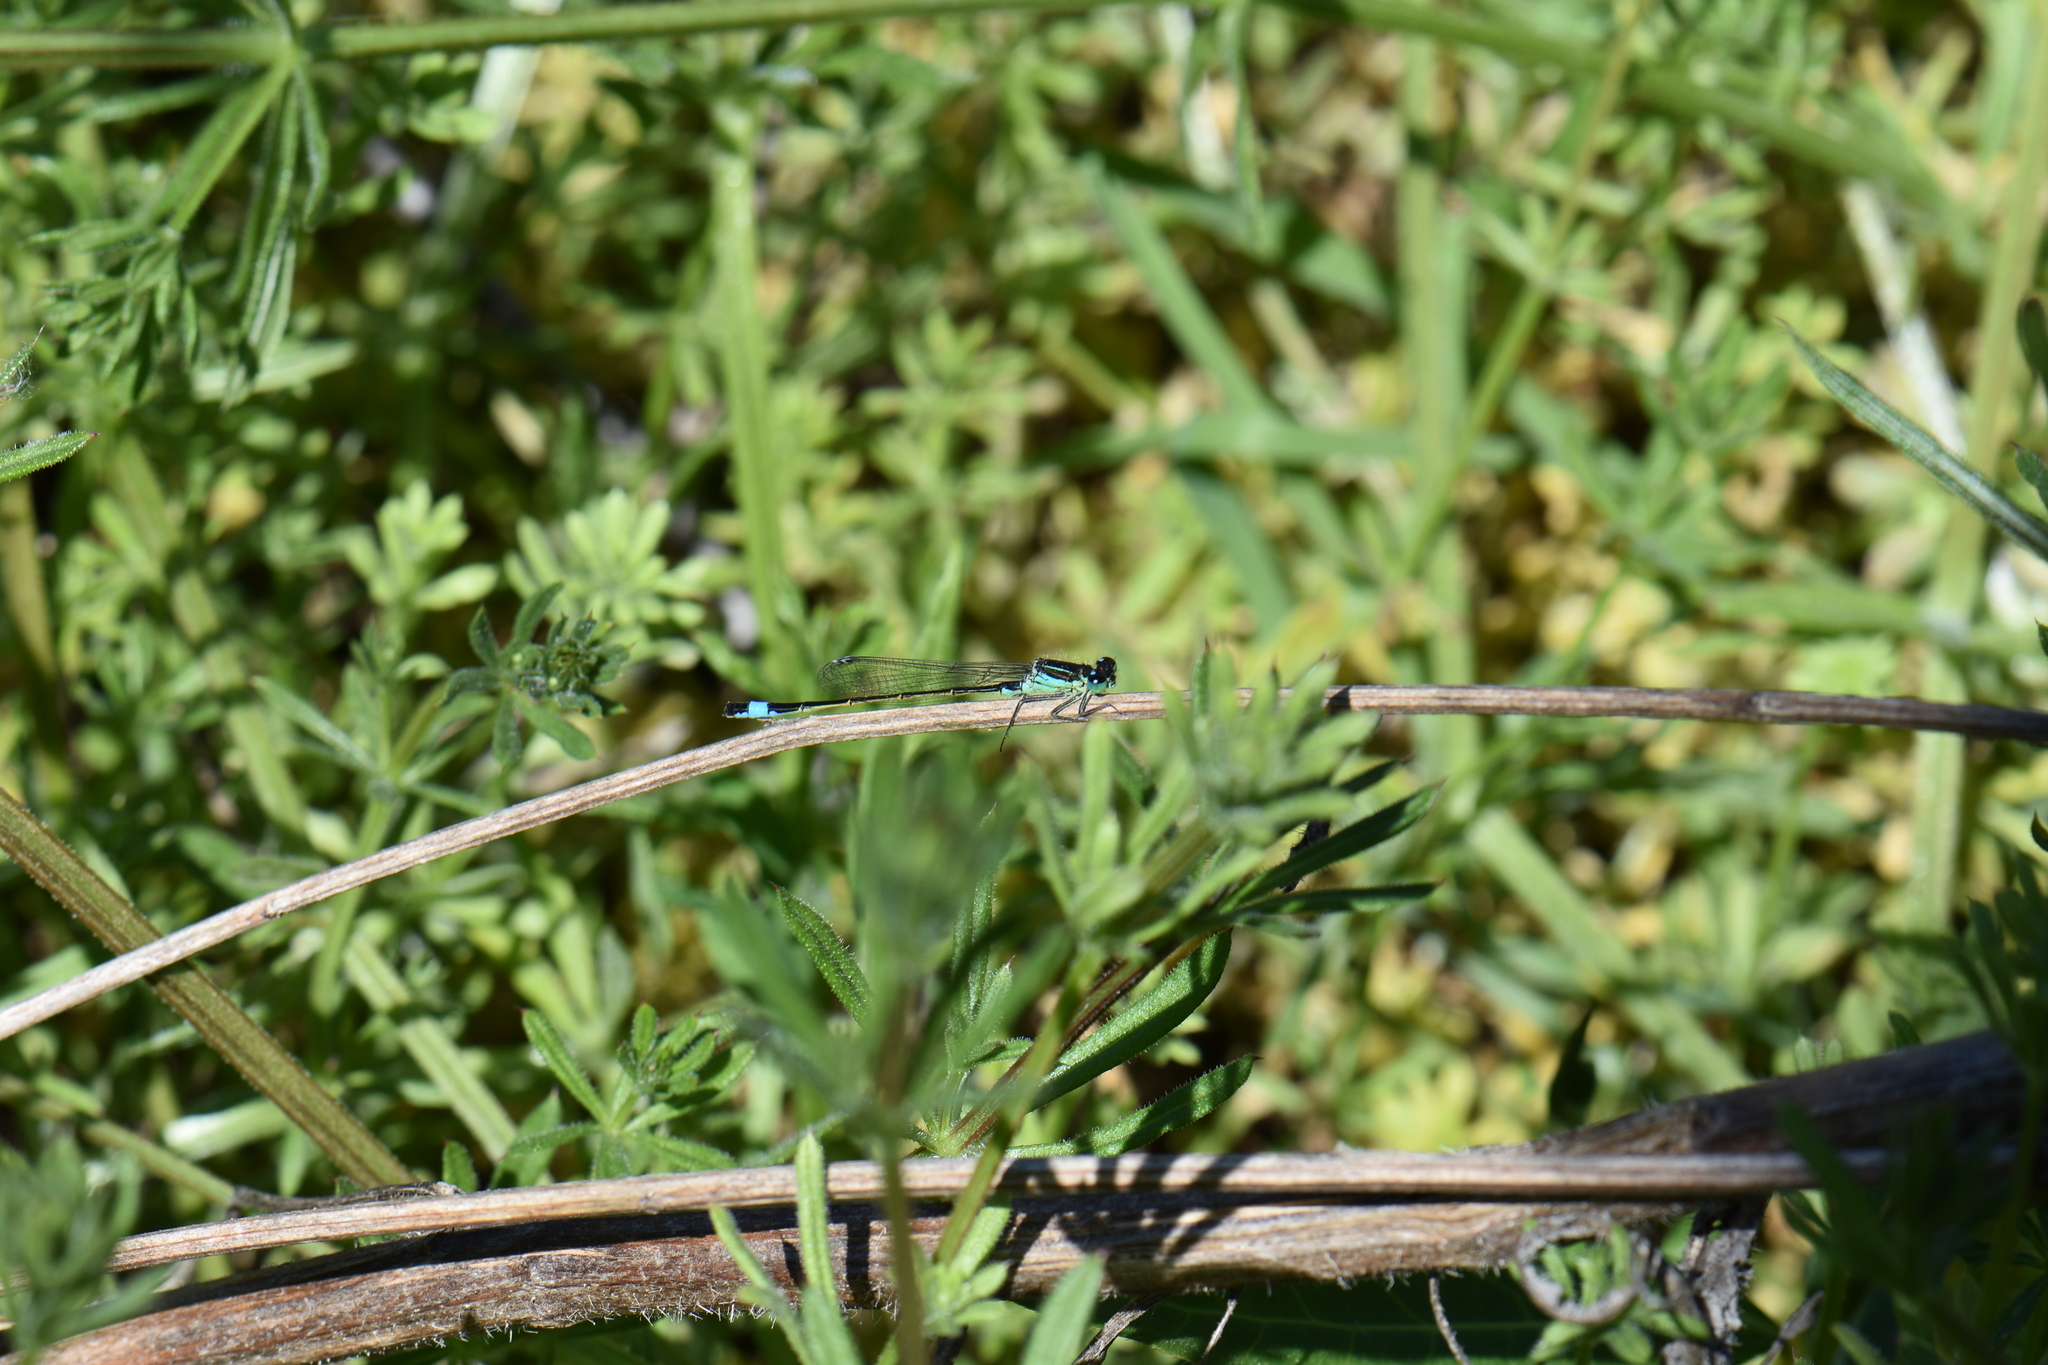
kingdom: Animalia
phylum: Arthropoda
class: Insecta
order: Odonata
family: Coenagrionidae
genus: Ischnura
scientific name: Ischnura elegans
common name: Blue-tailed damselfly
